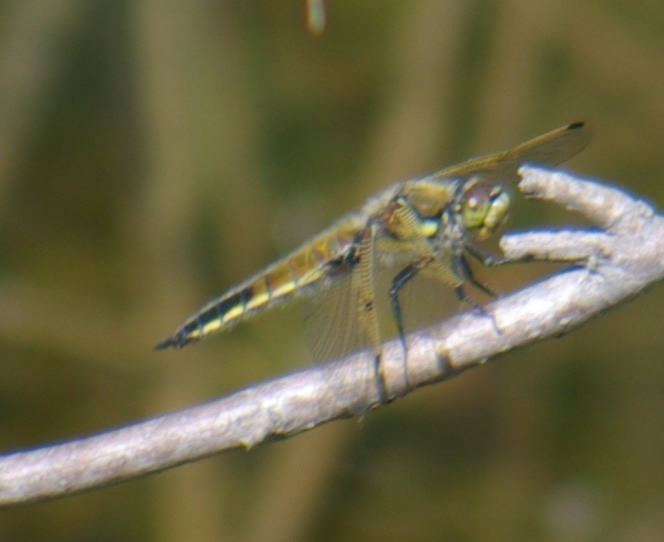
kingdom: Animalia
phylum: Arthropoda
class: Insecta
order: Odonata
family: Libellulidae
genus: Libellula
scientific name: Libellula quadrimaculata
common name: Four-spotted chaser
